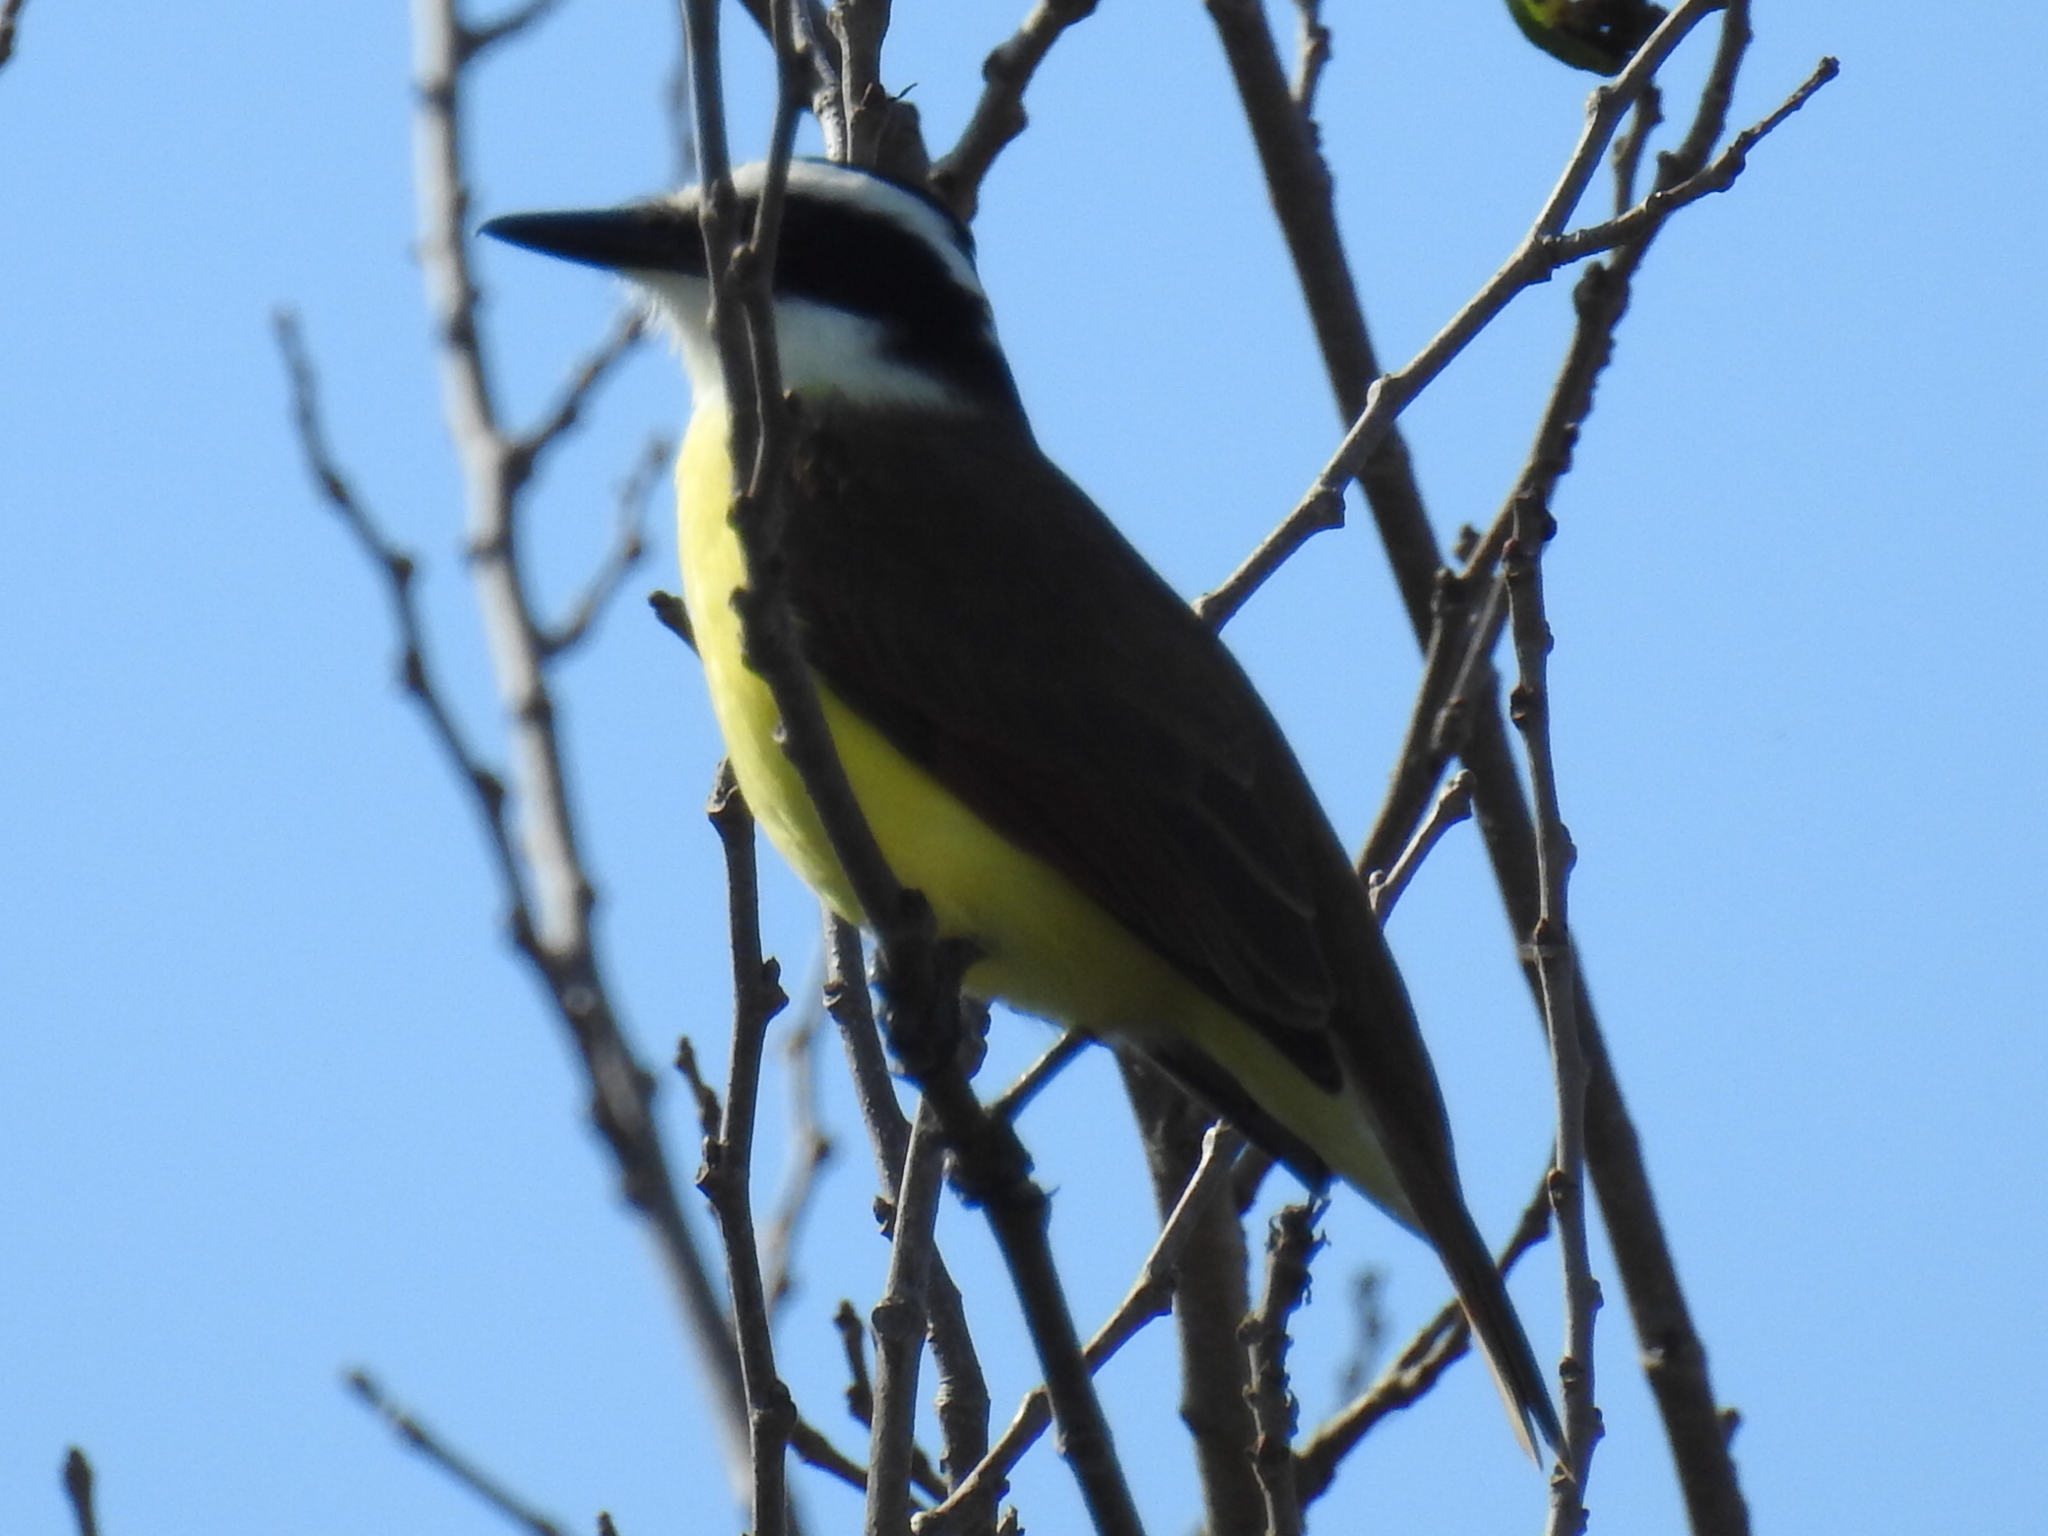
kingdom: Animalia
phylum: Chordata
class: Aves
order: Passeriformes
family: Tyrannidae
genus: Pitangus
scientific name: Pitangus sulphuratus
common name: Great kiskadee
